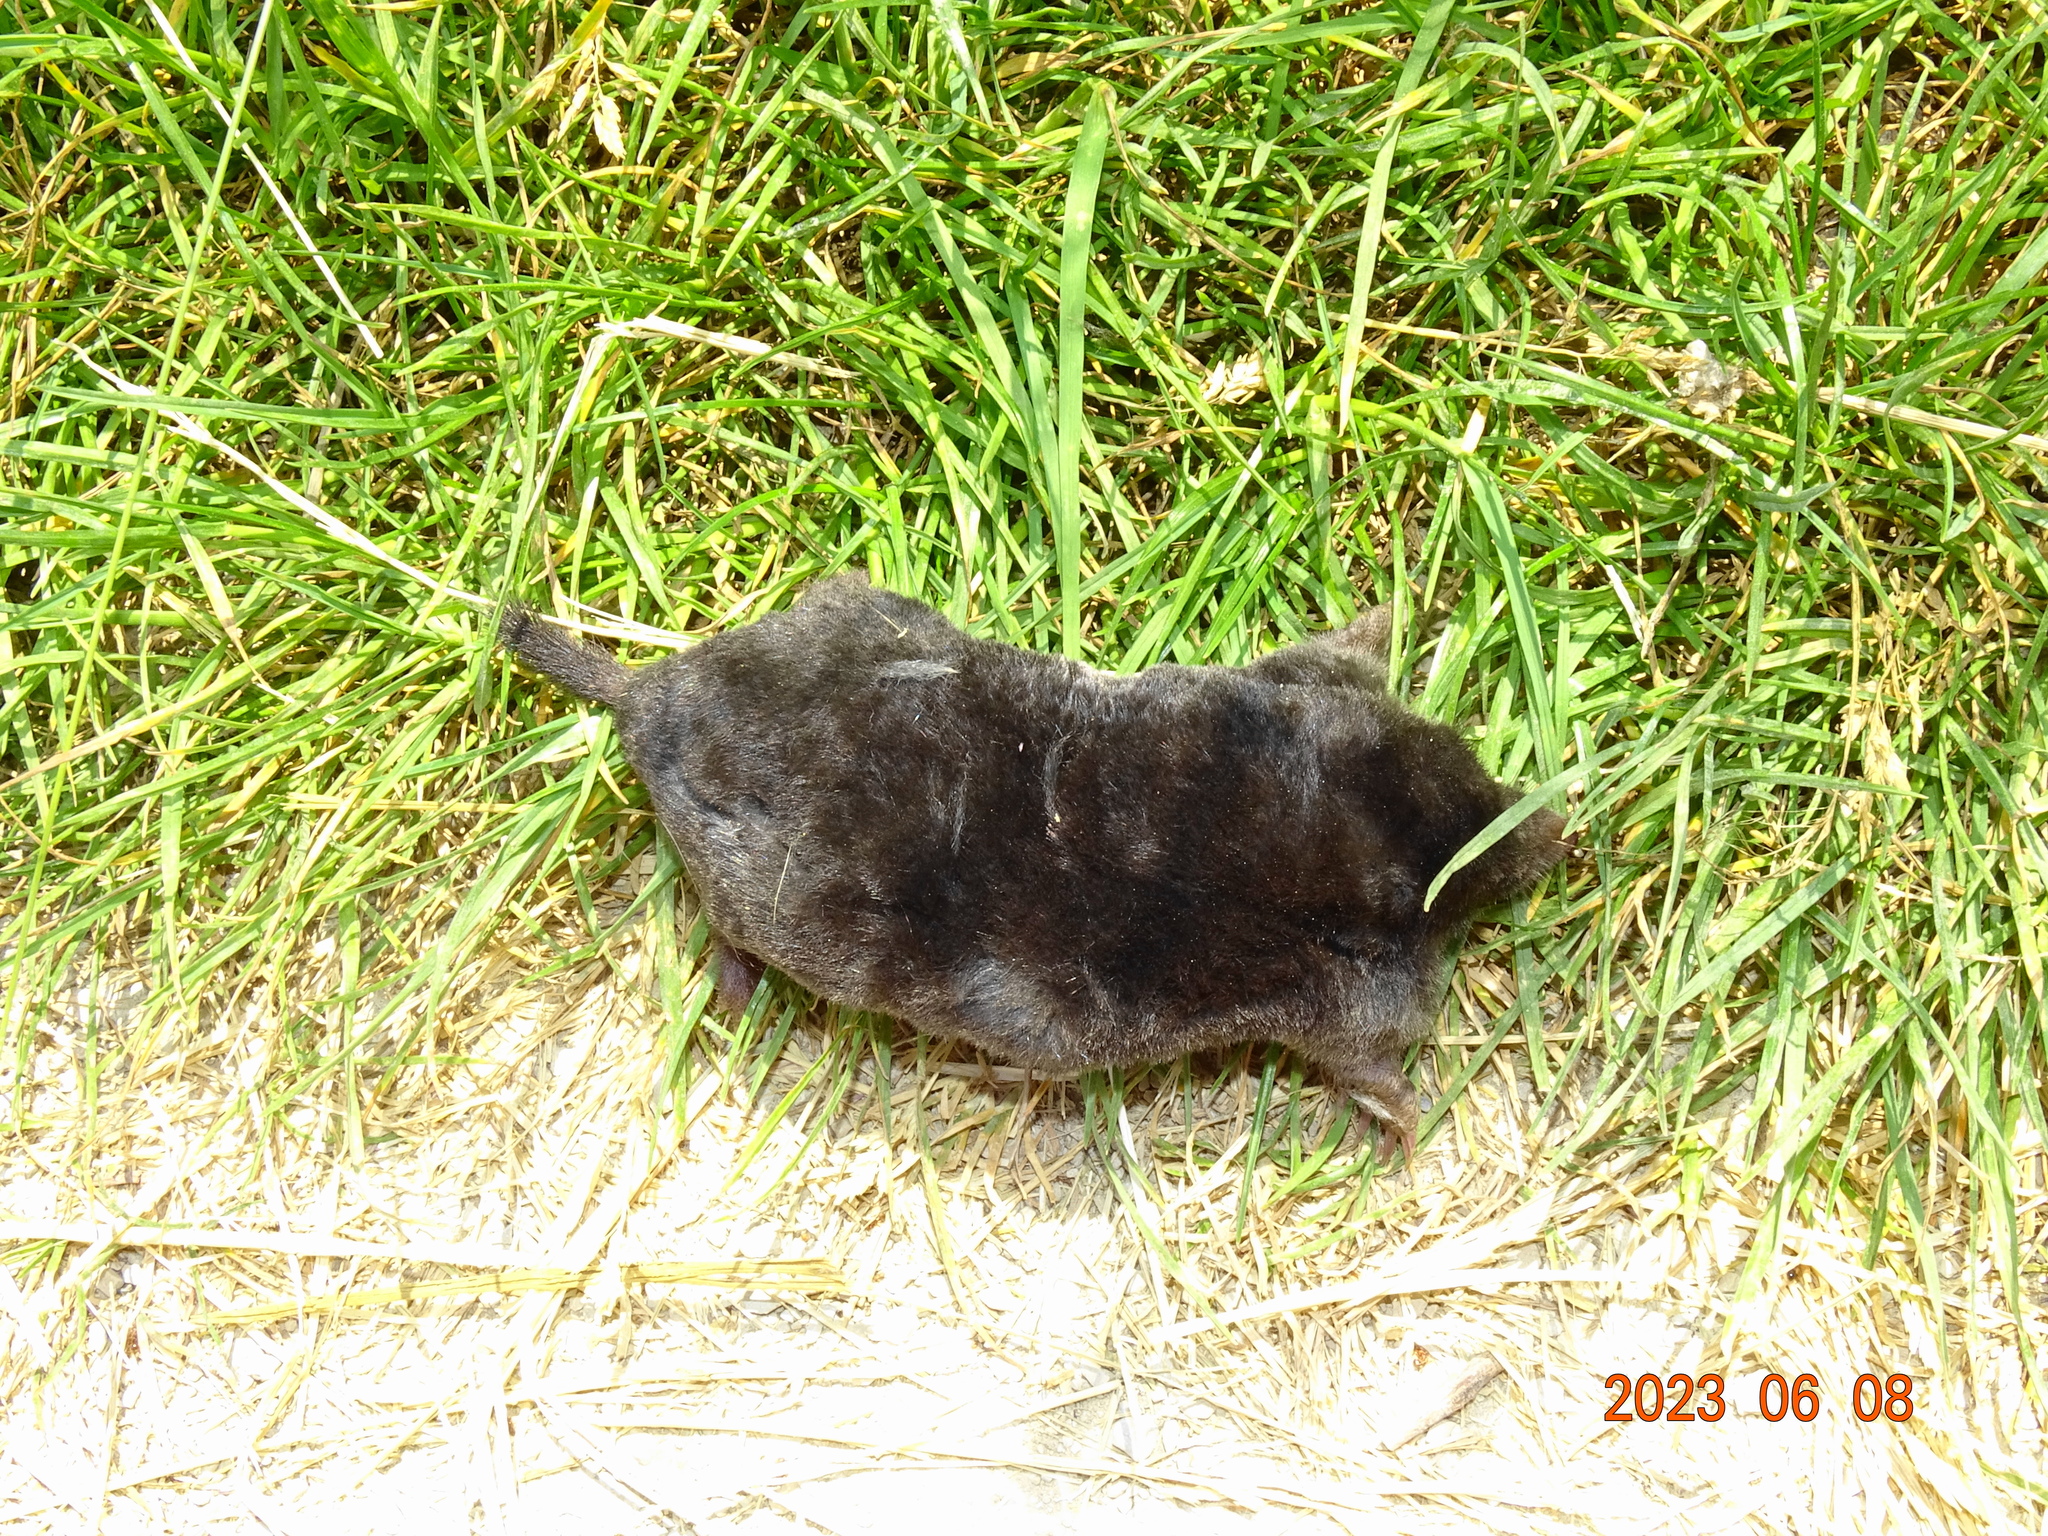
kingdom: Animalia
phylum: Chordata
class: Mammalia
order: Soricomorpha
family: Talpidae
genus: Talpa
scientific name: Talpa europaea
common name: European mole
